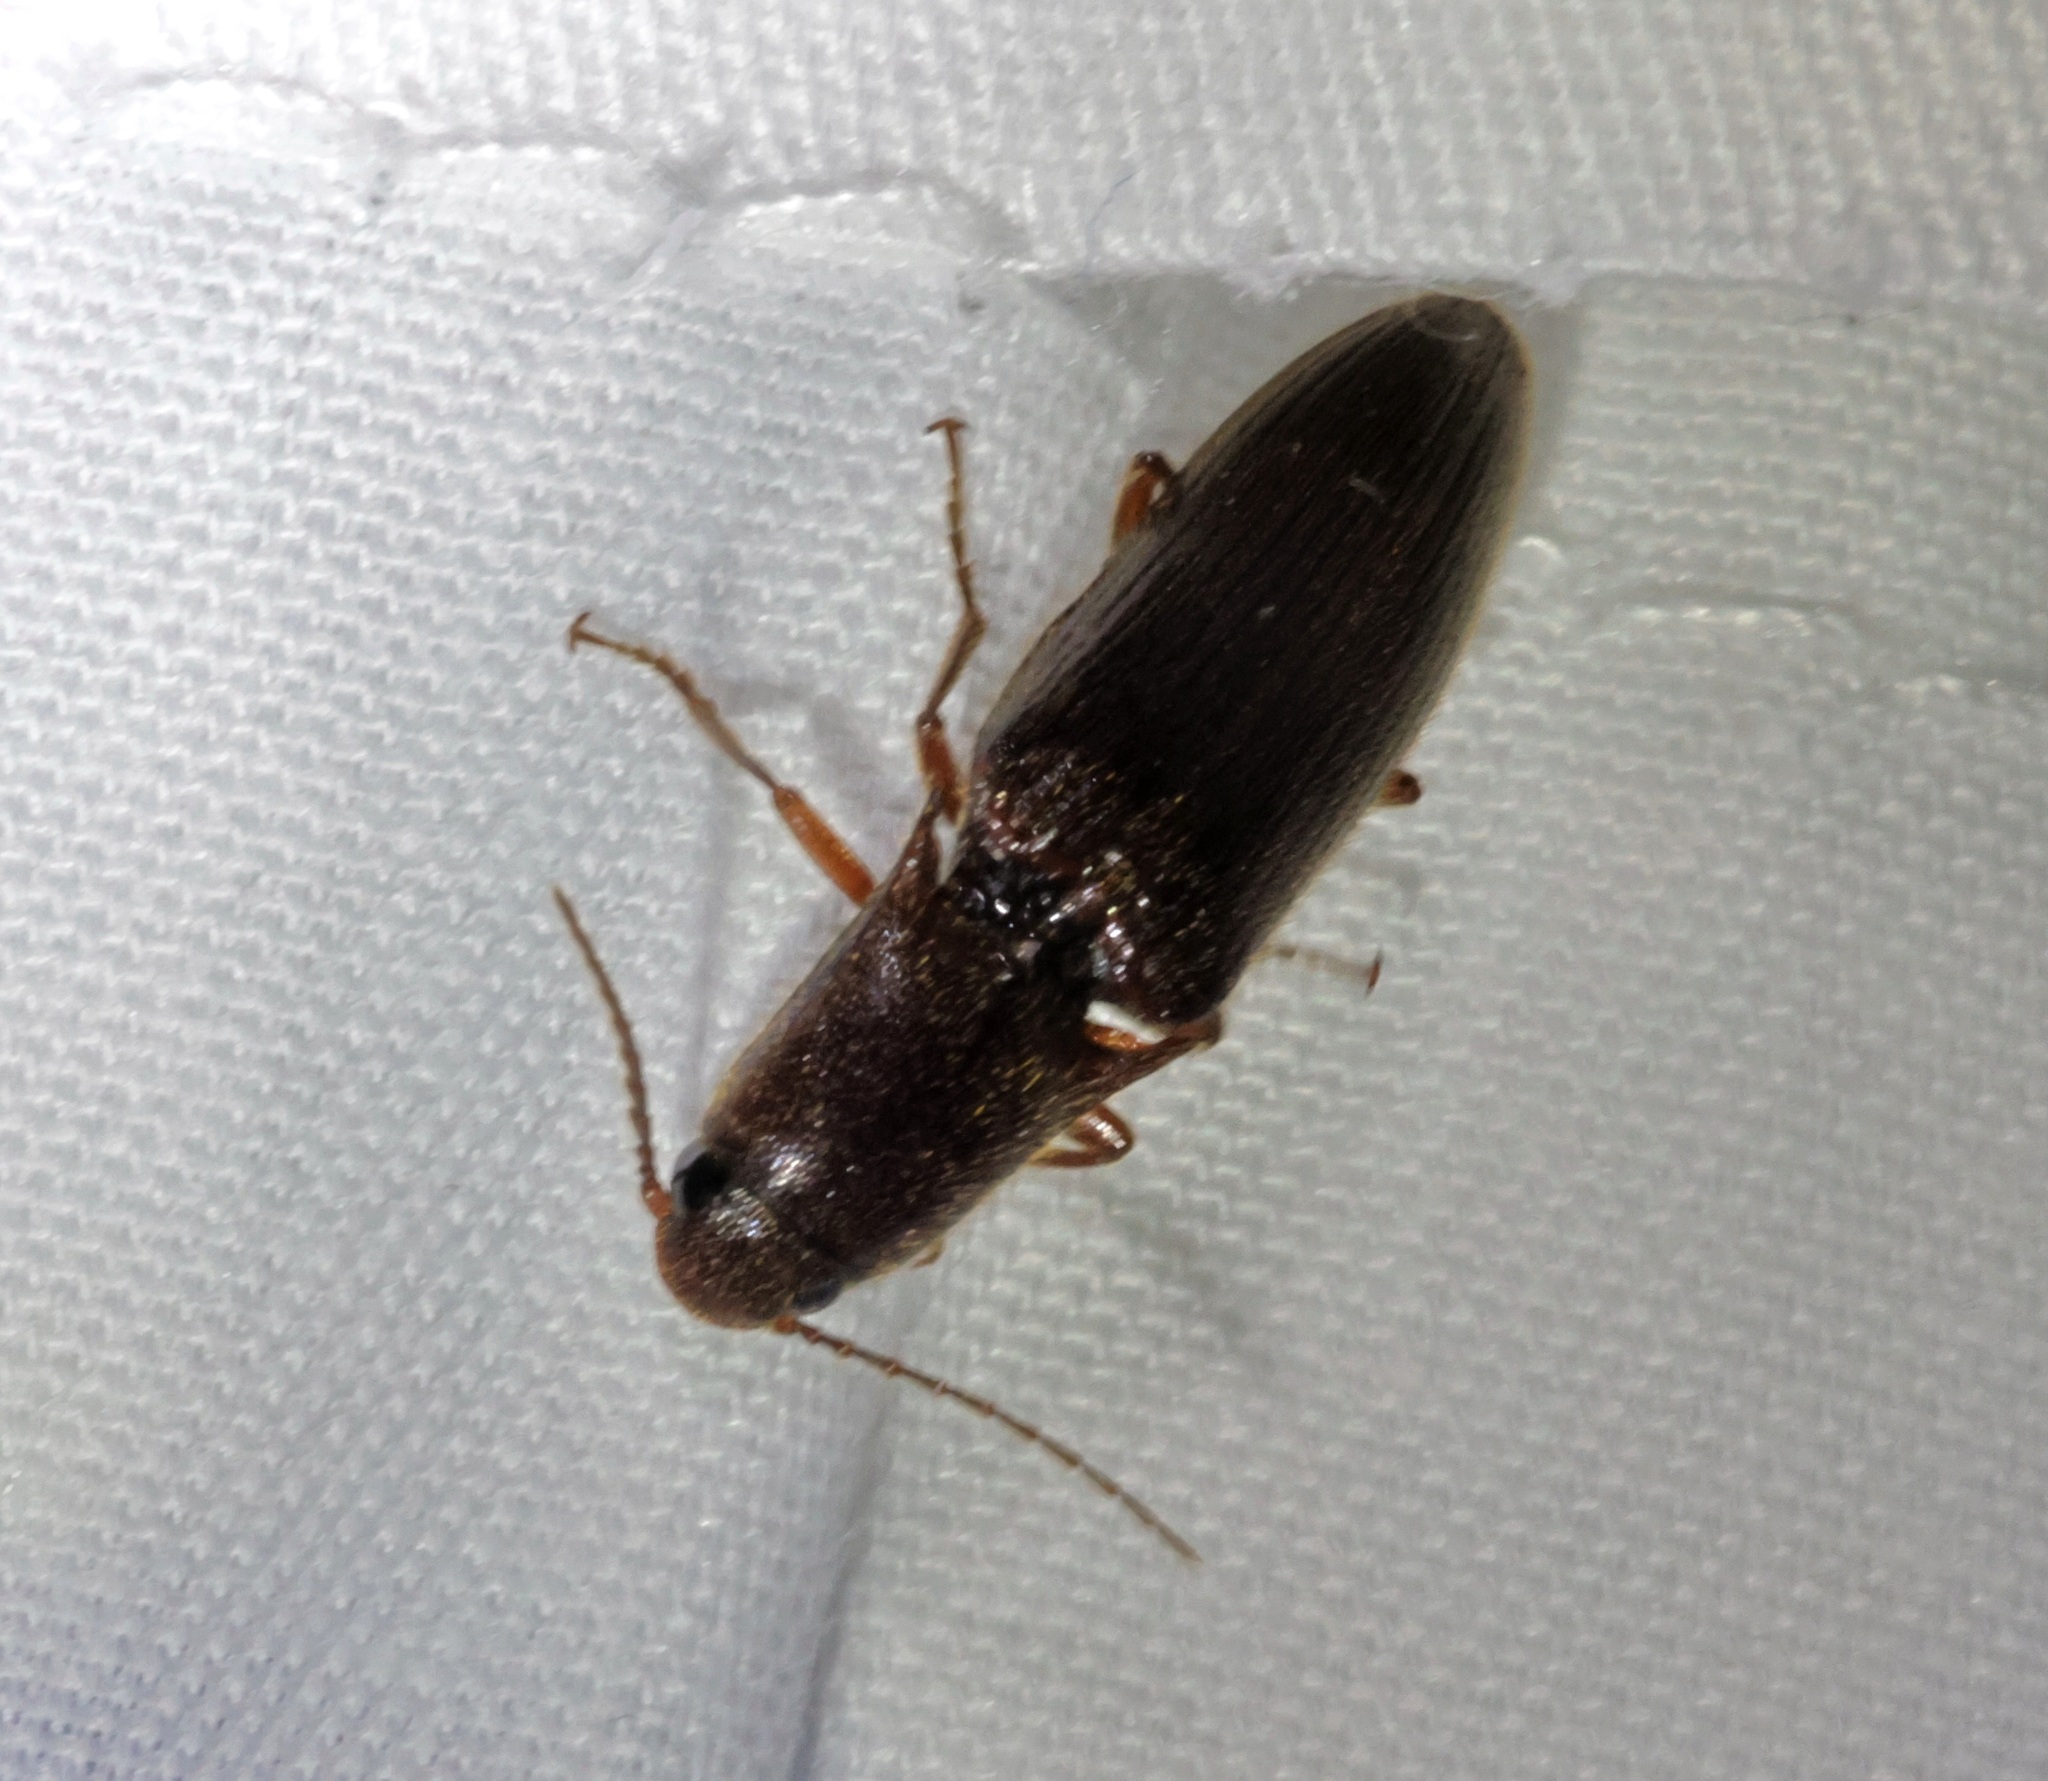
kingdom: Animalia
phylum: Arthropoda
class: Insecta
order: Coleoptera
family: Elateridae
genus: Ludioschema
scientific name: Ludioschema
